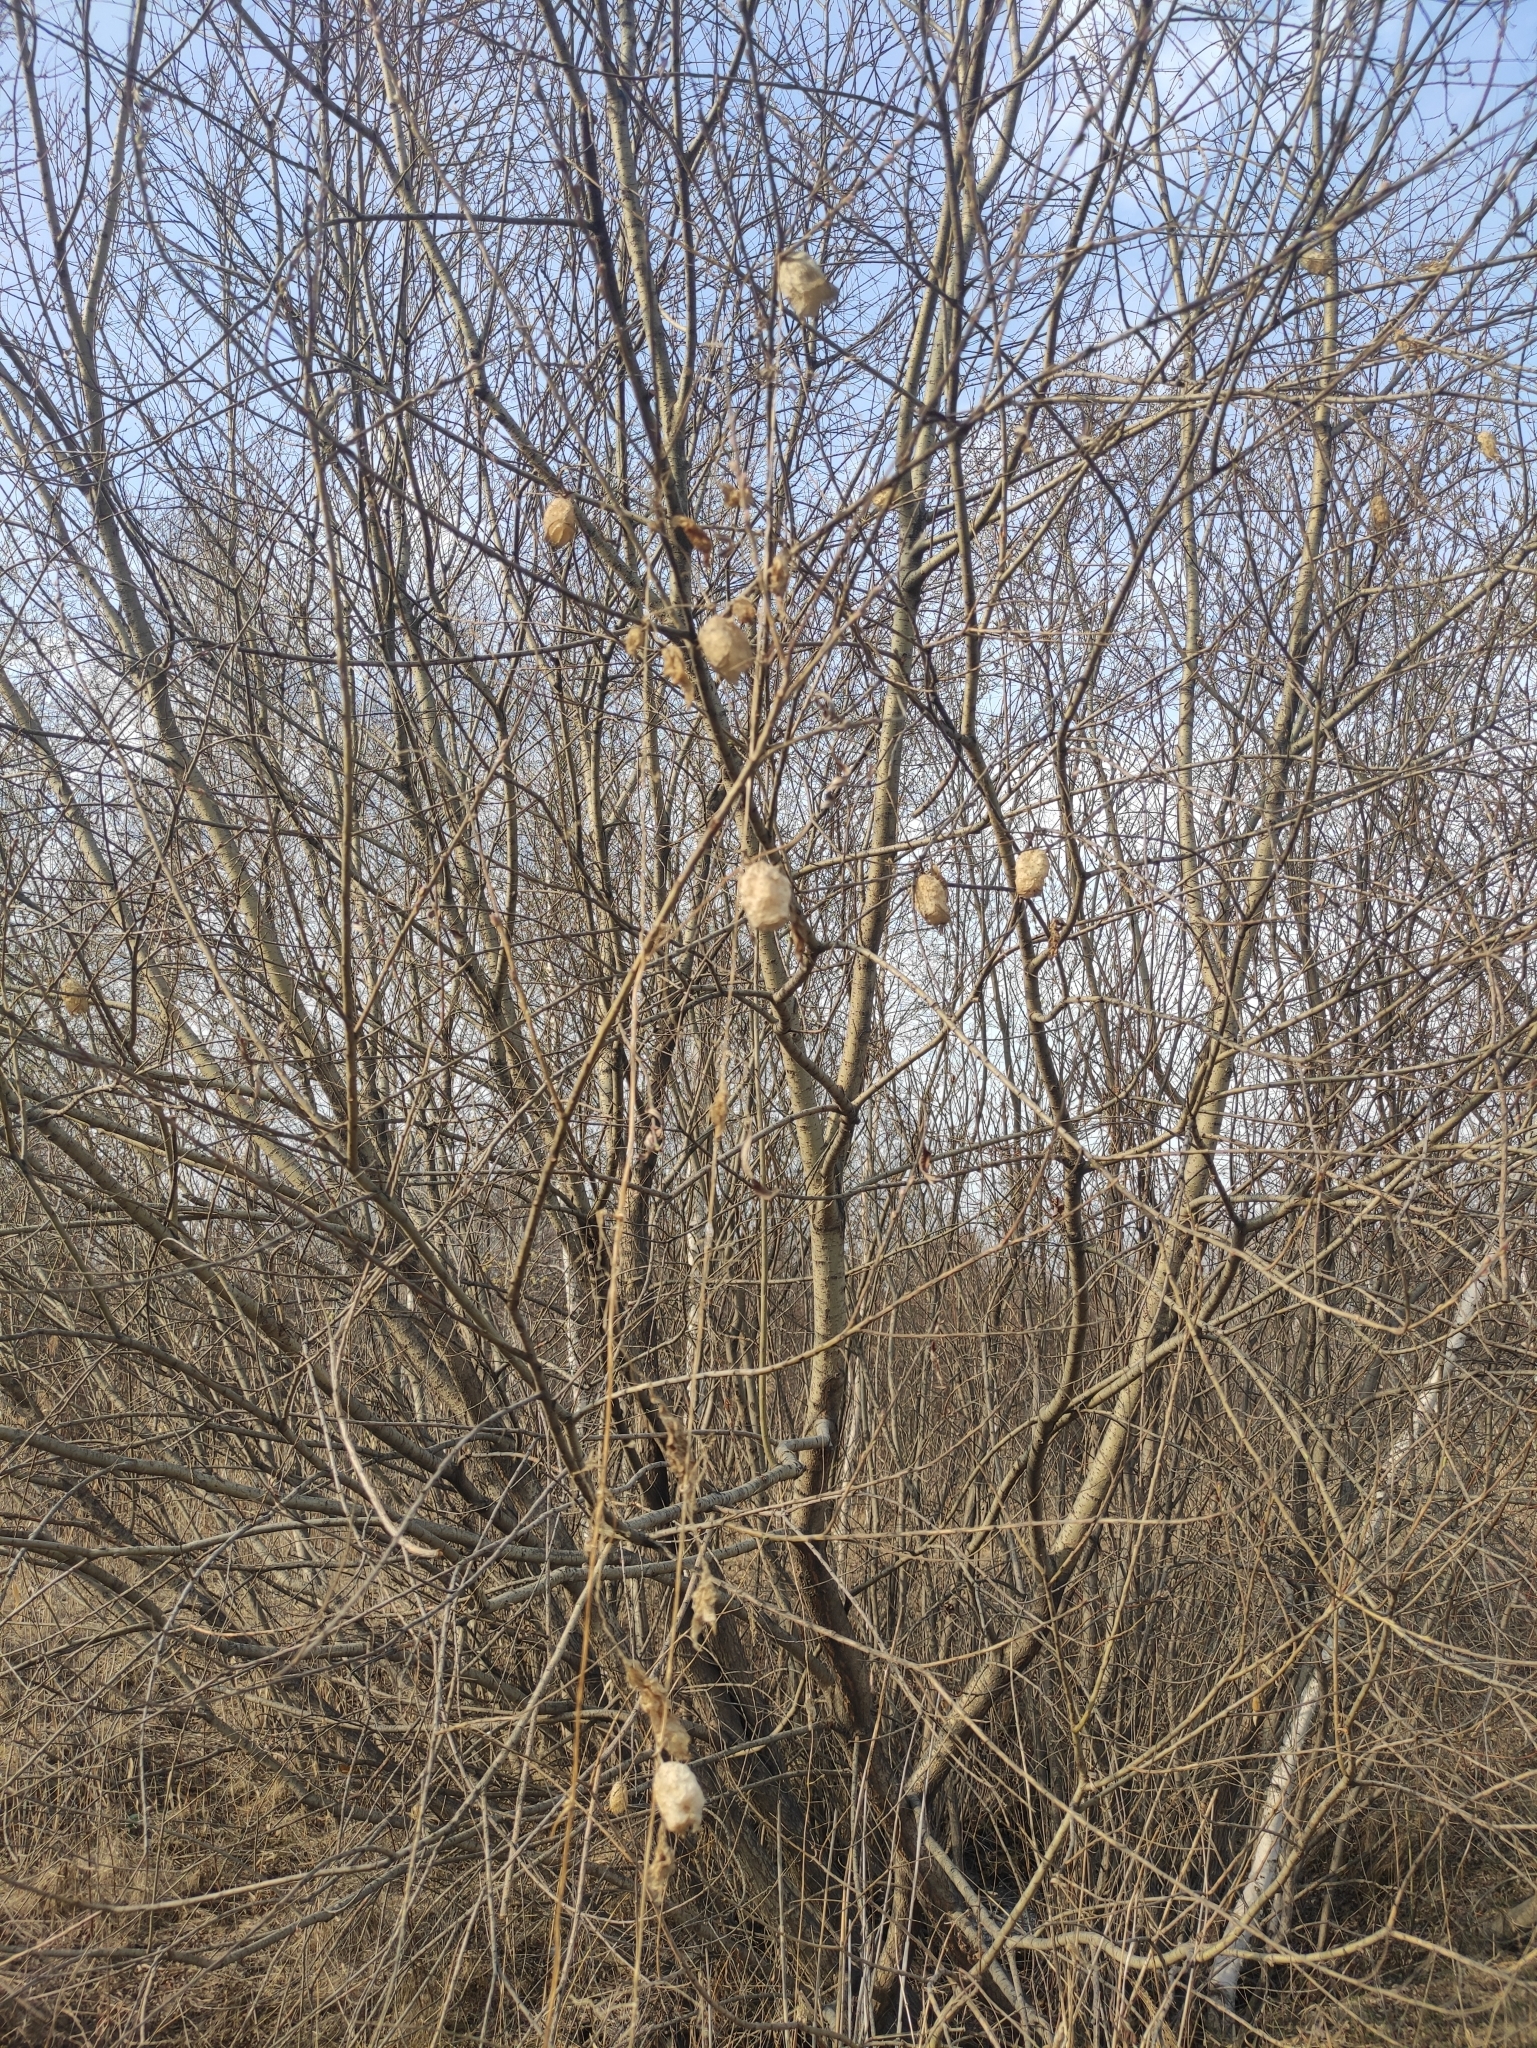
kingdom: Plantae
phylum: Tracheophyta
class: Magnoliopsida
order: Cucurbitales
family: Cucurbitaceae
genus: Echinocystis
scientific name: Echinocystis lobata
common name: Wild cucumber
